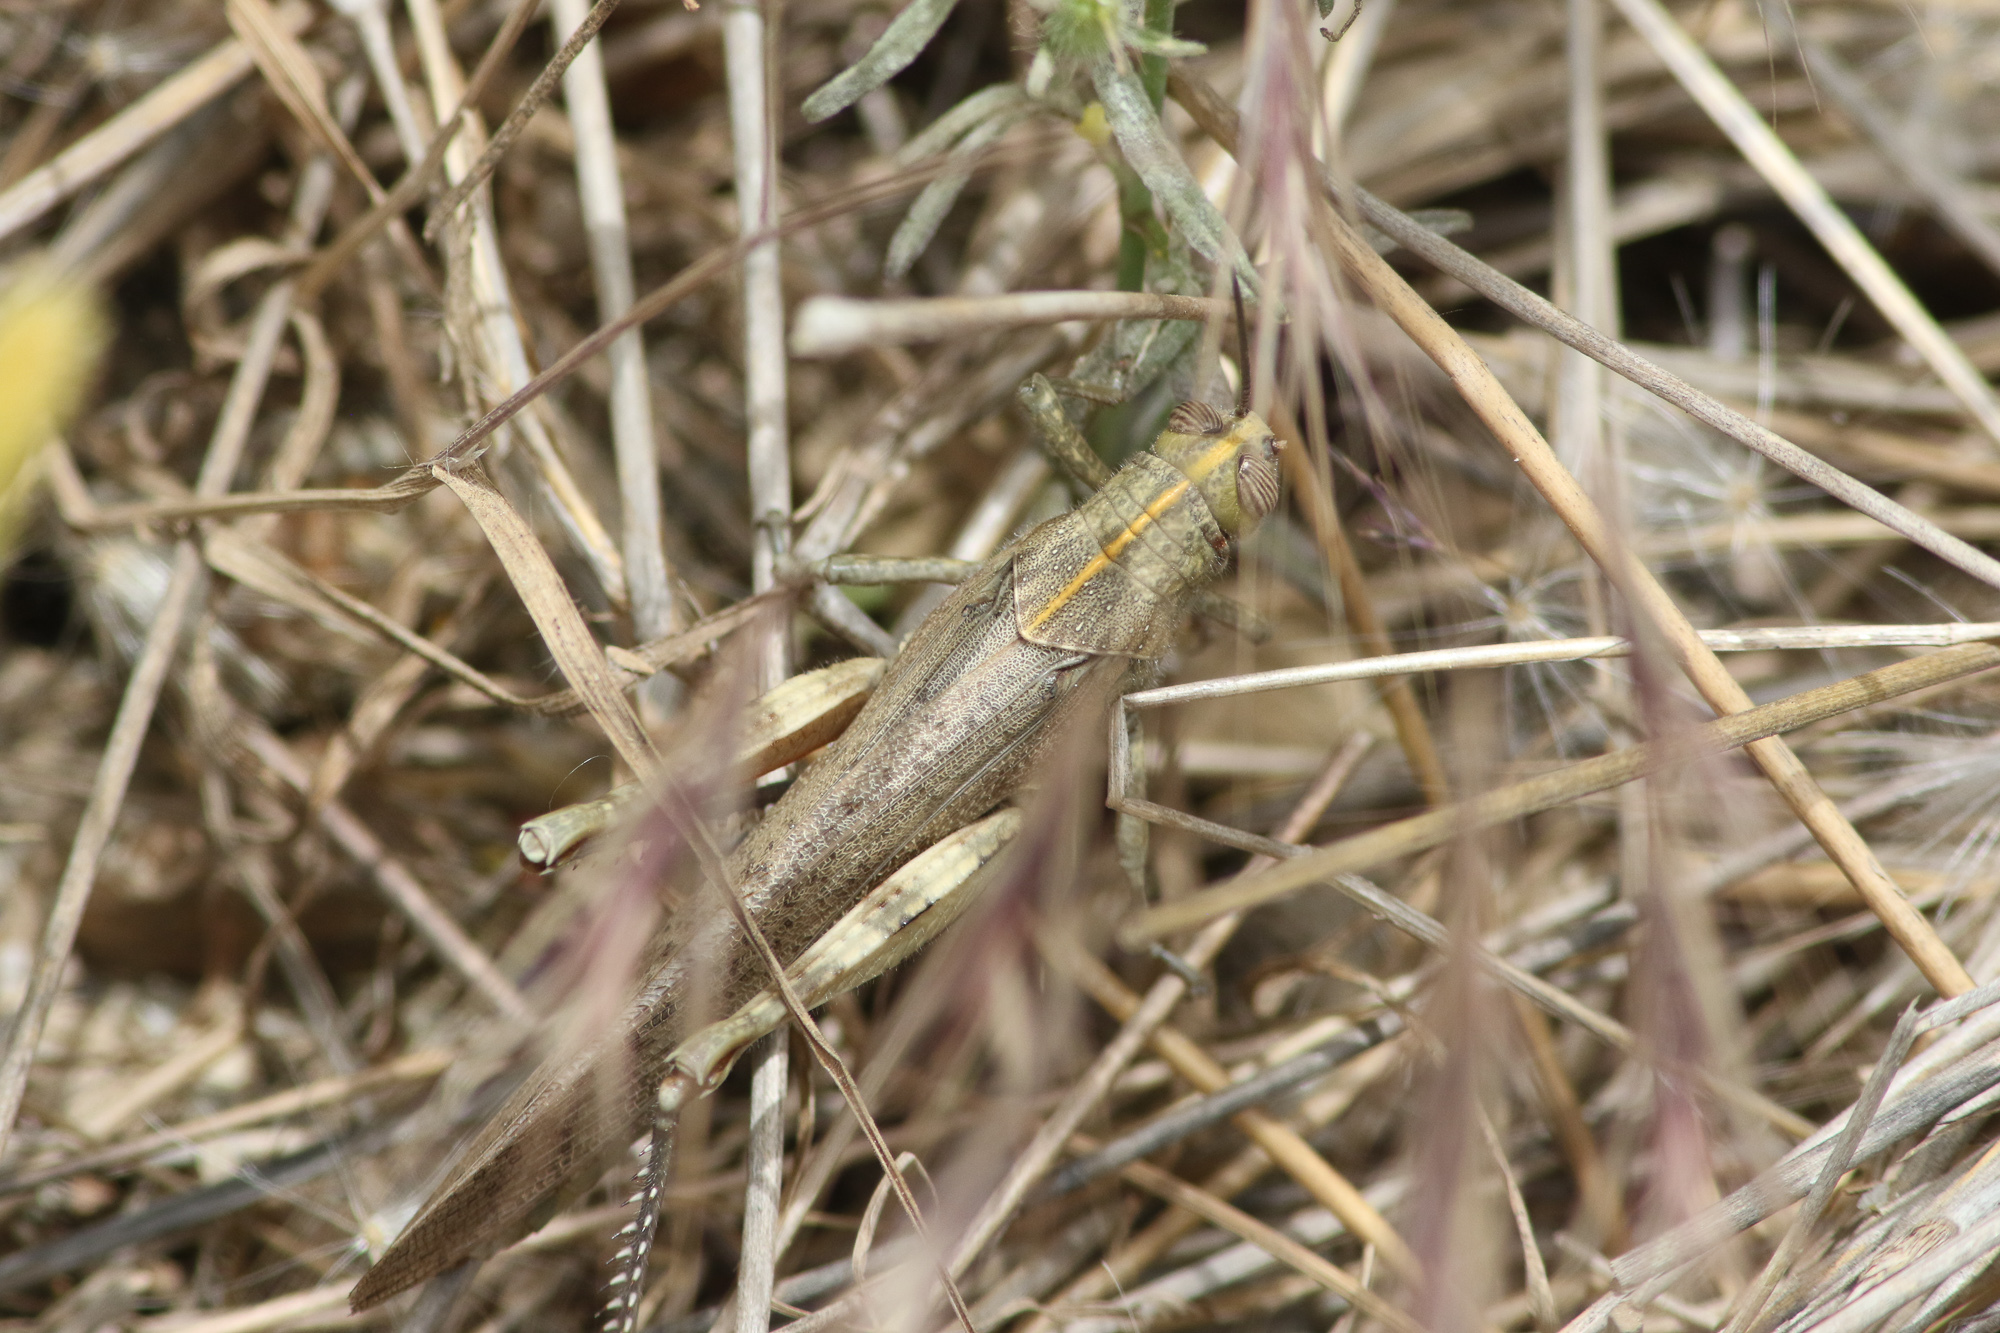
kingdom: Animalia
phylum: Arthropoda
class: Insecta
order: Orthoptera
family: Acrididae
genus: Anacridium
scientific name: Anacridium aegyptium
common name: Egyptian grasshopper
